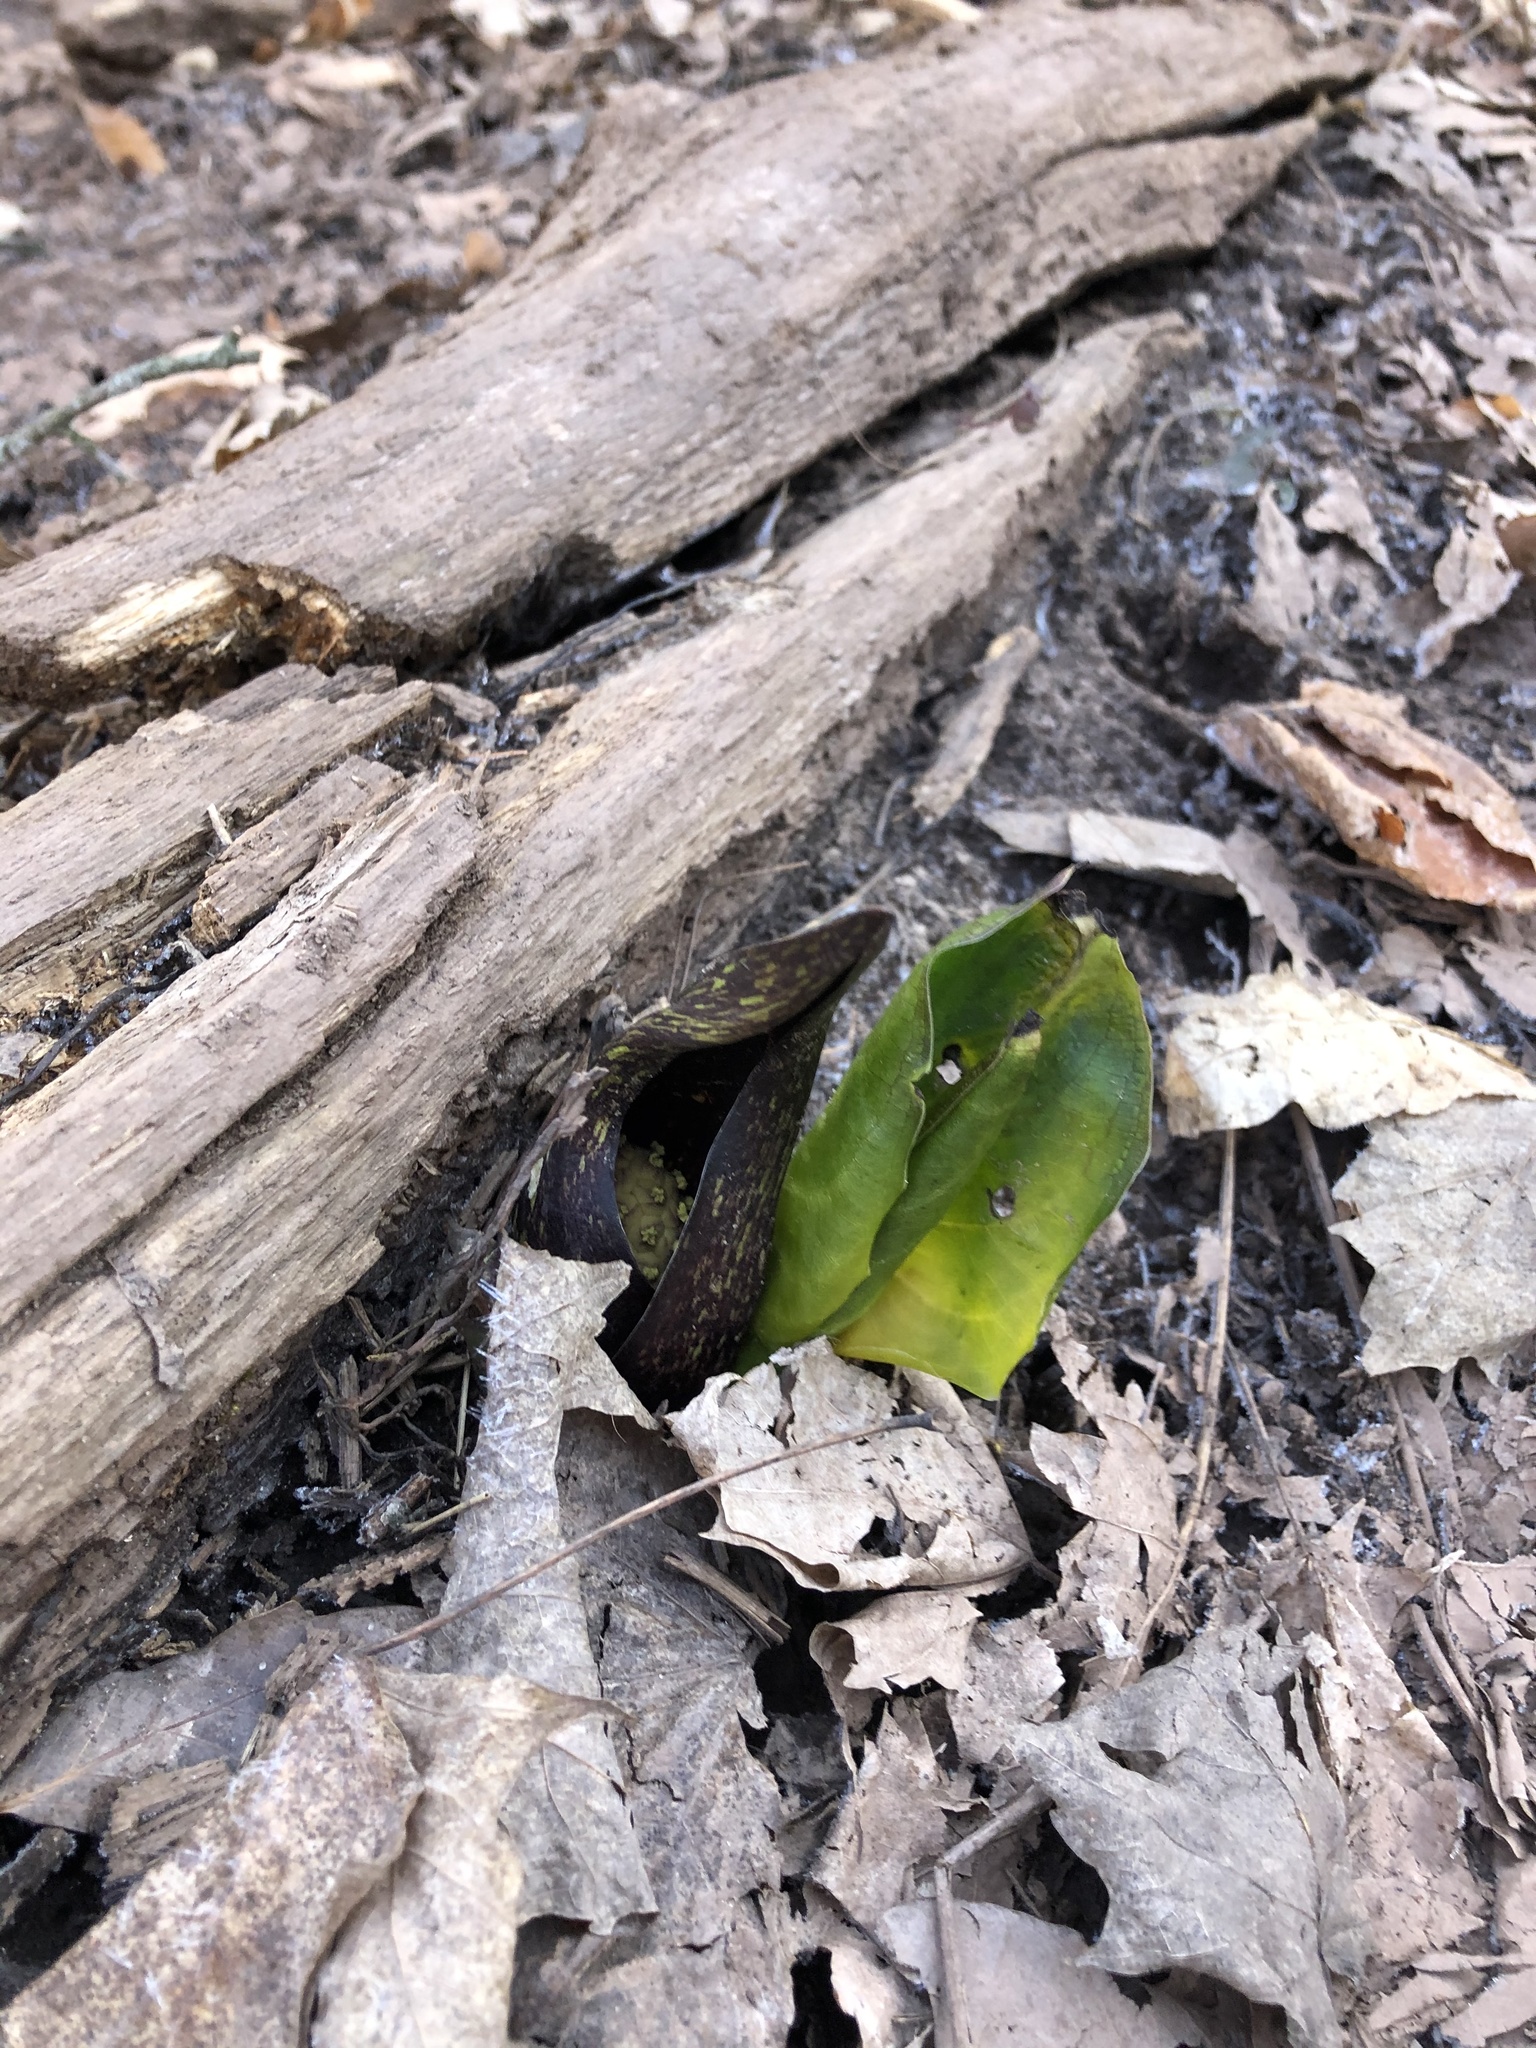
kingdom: Plantae
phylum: Tracheophyta
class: Liliopsida
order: Alismatales
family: Araceae
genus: Symplocarpus
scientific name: Symplocarpus foetidus
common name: Eastern skunk cabbage
